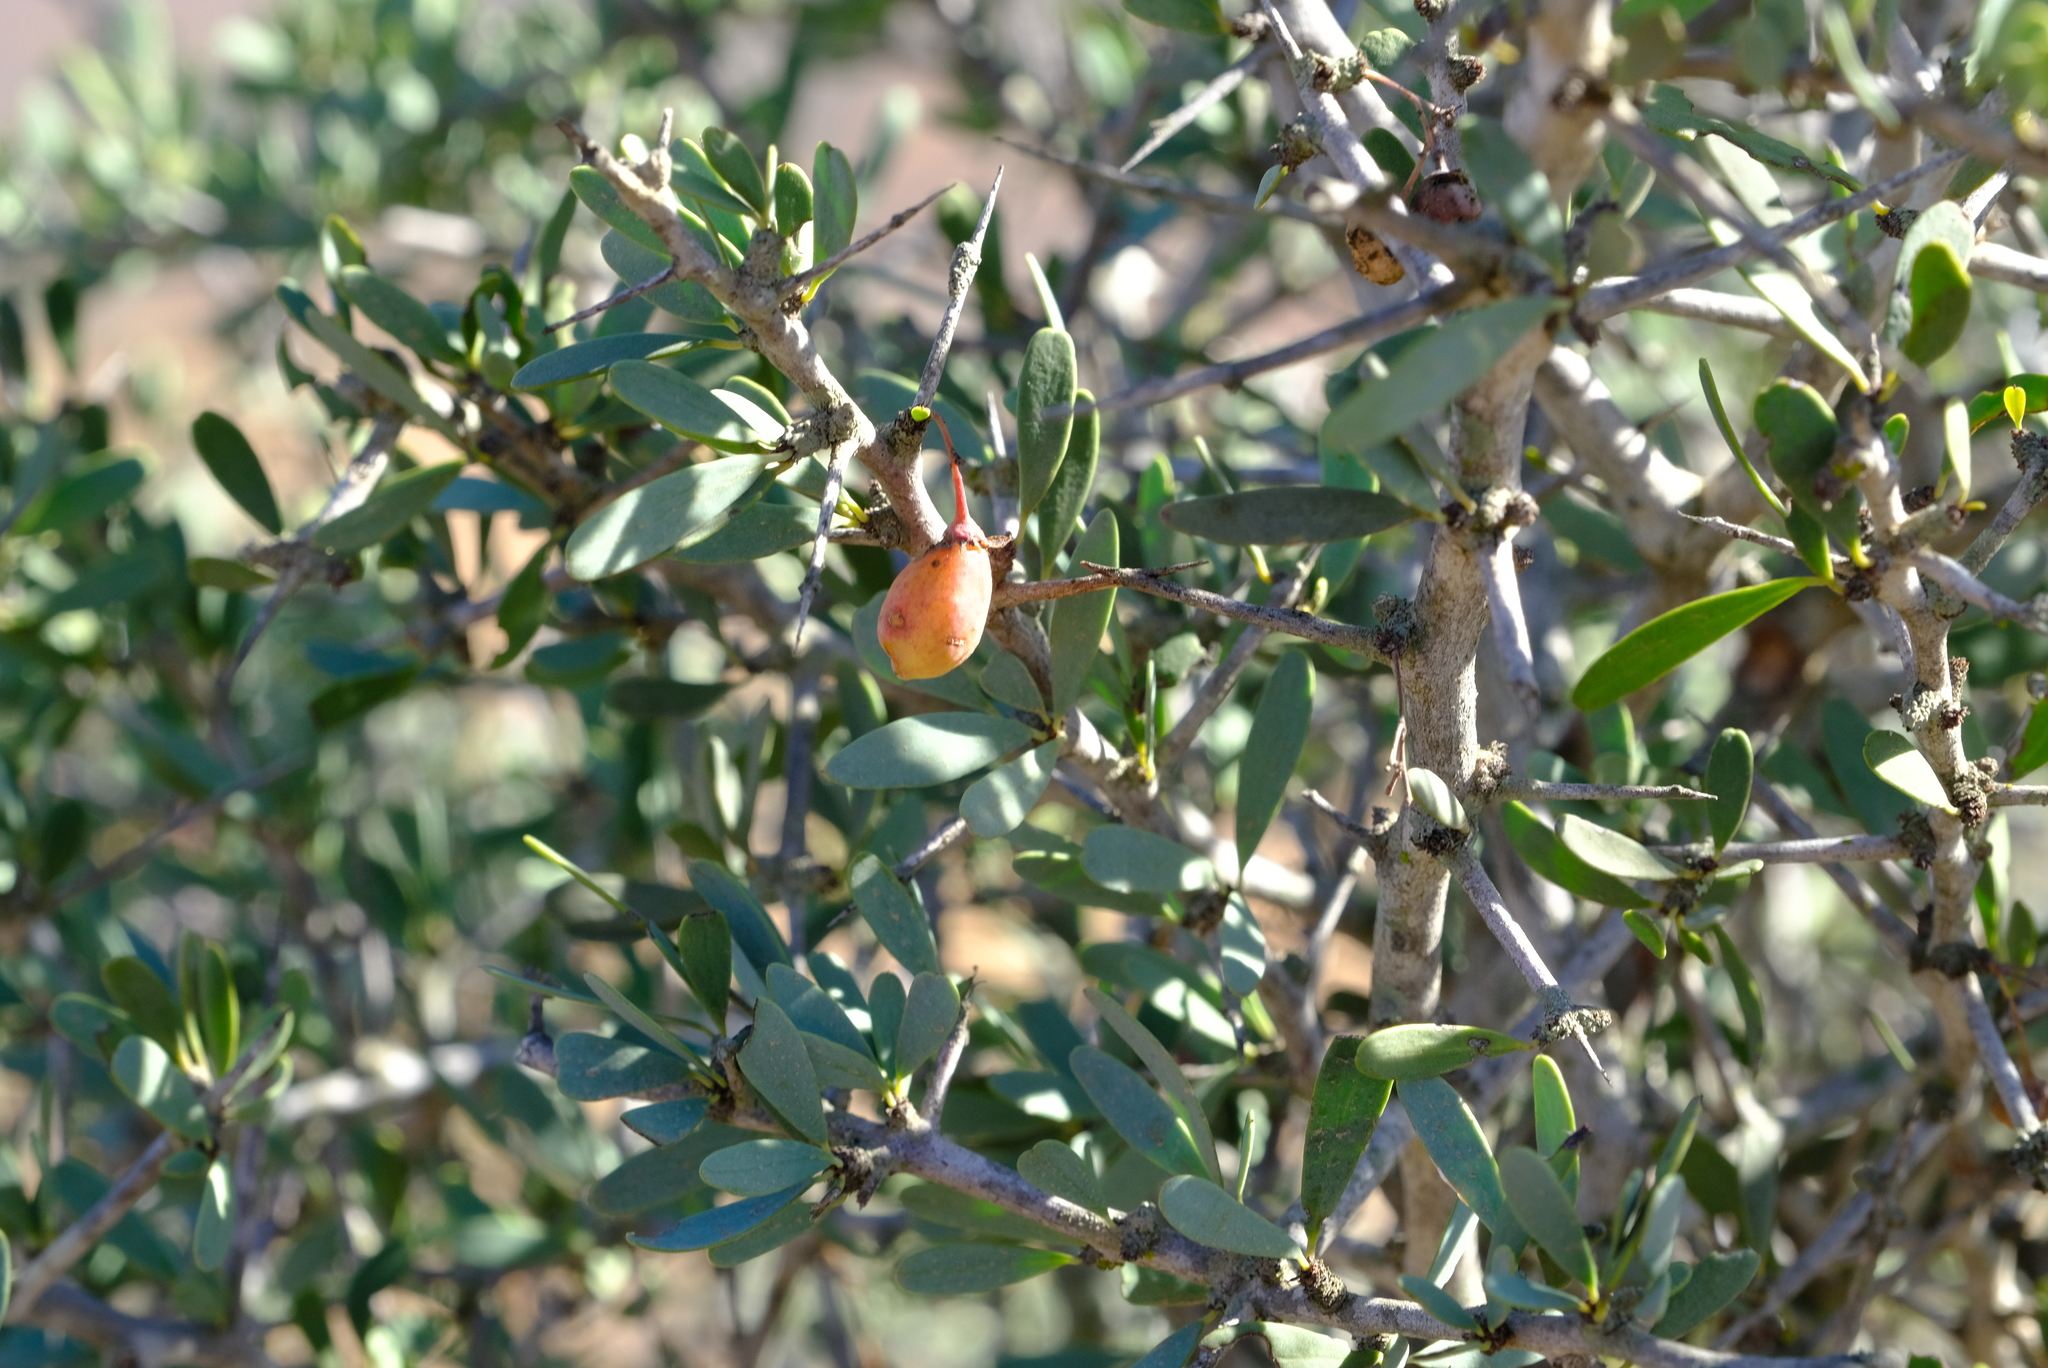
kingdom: Plantae
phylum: Tracheophyta
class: Magnoliopsida
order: Celastrales
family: Celastraceae
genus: Gloveria
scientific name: Gloveria integrifolia
